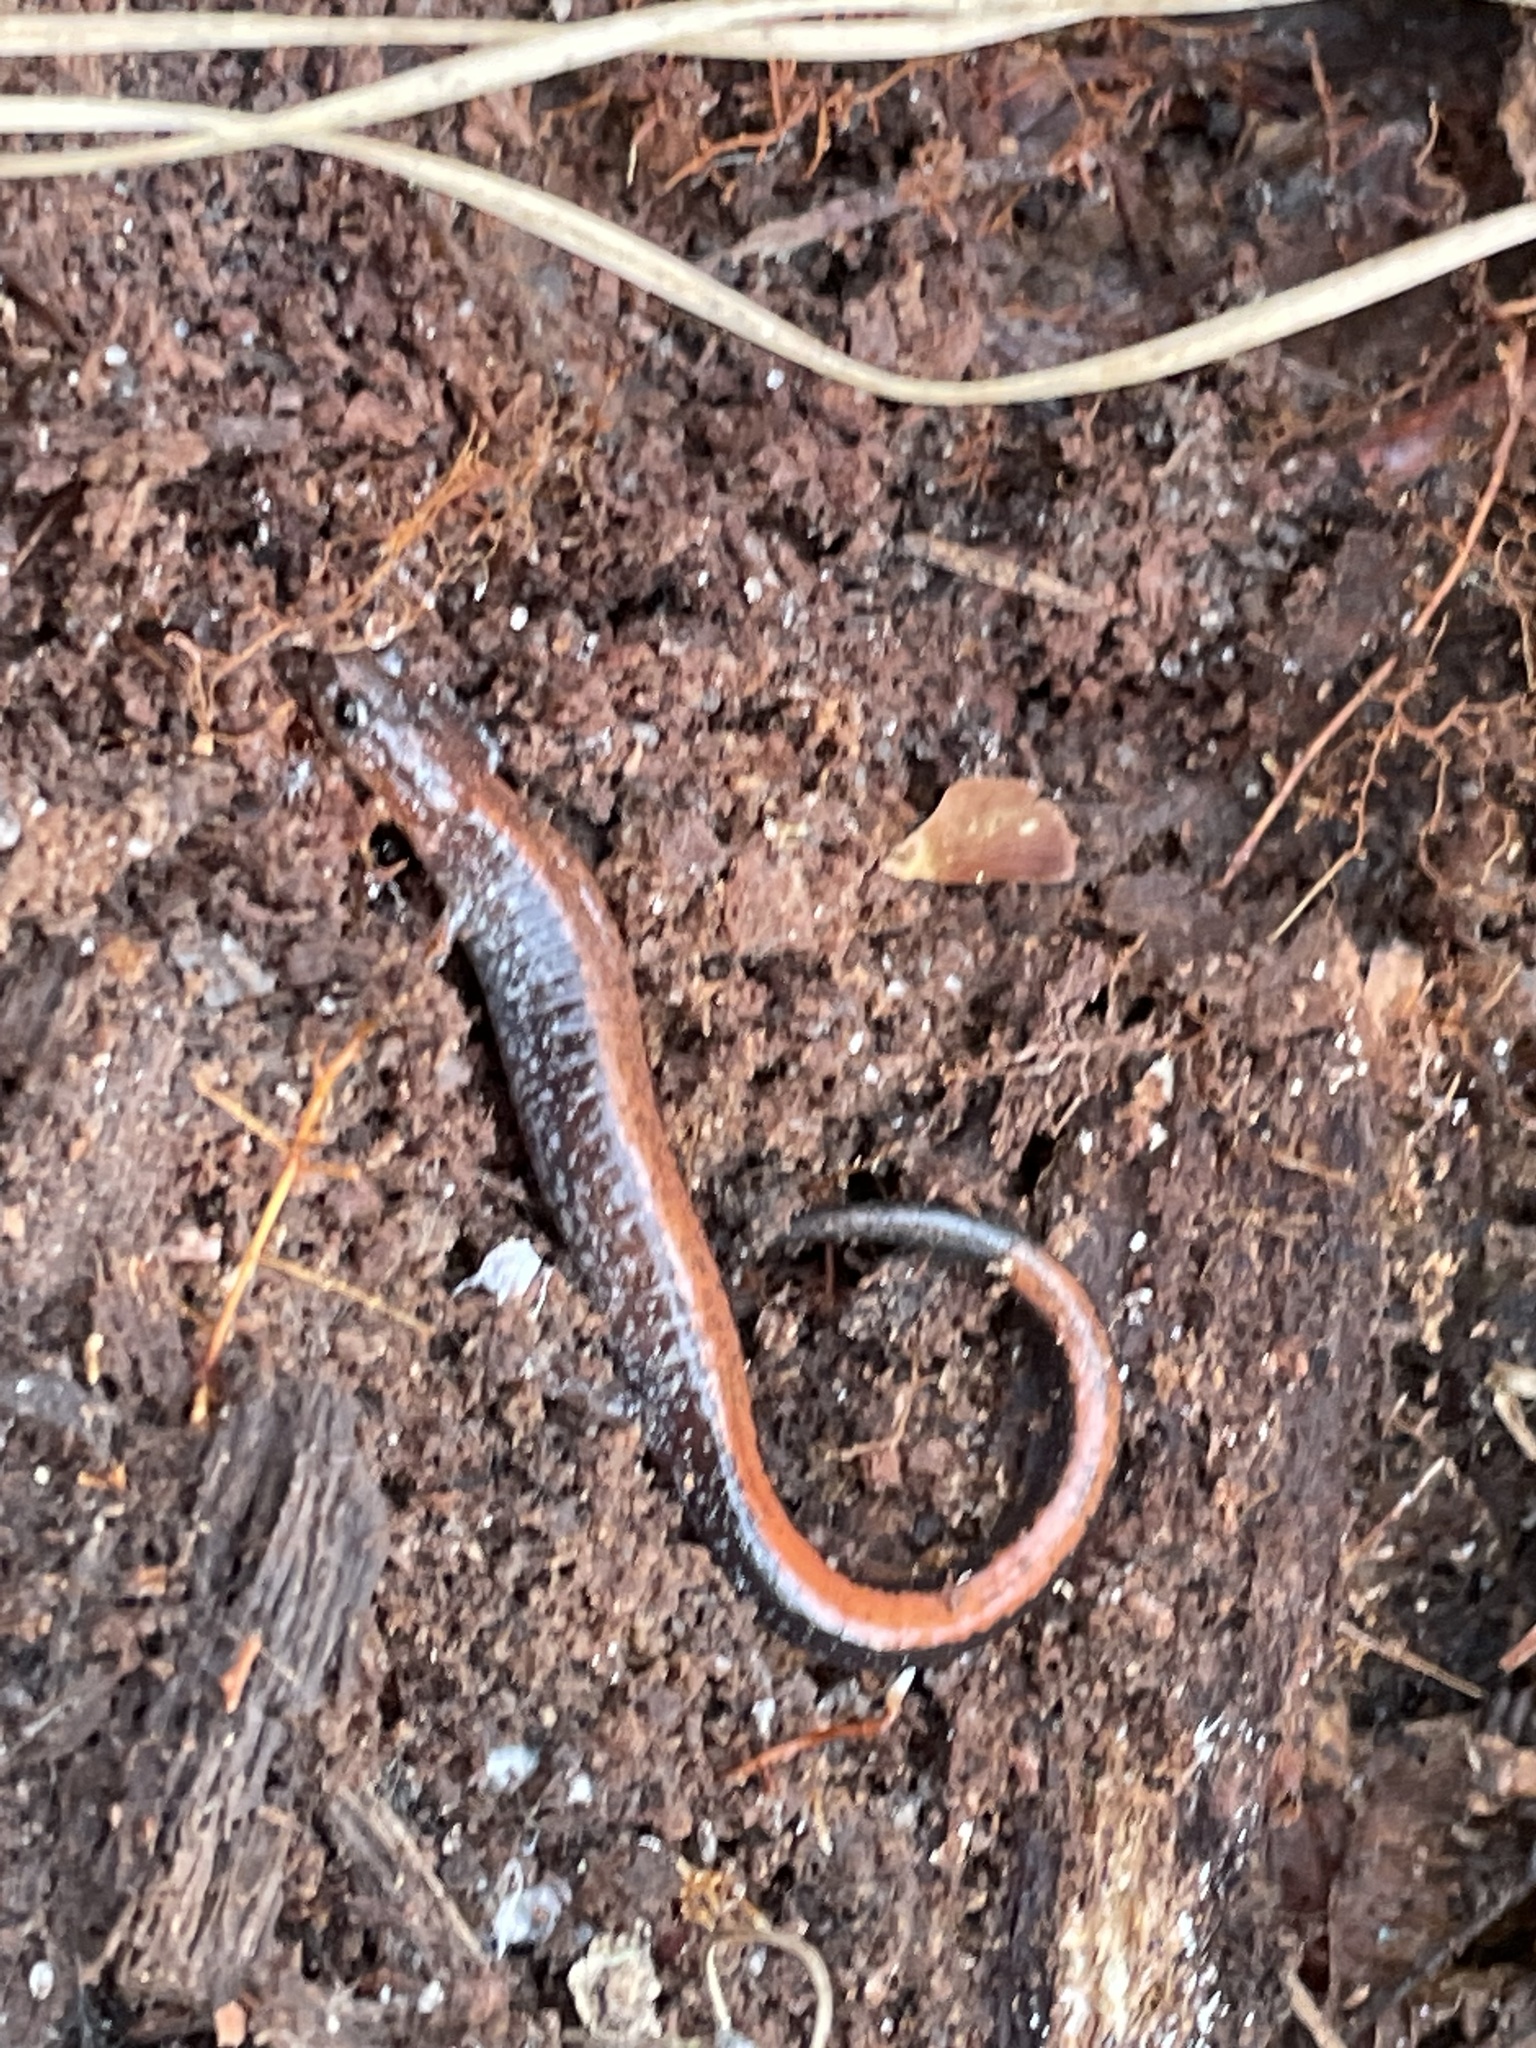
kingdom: Animalia
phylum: Chordata
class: Amphibia
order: Caudata
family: Plethodontidae
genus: Plethodon
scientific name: Plethodon cinereus
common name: Redback salamander
